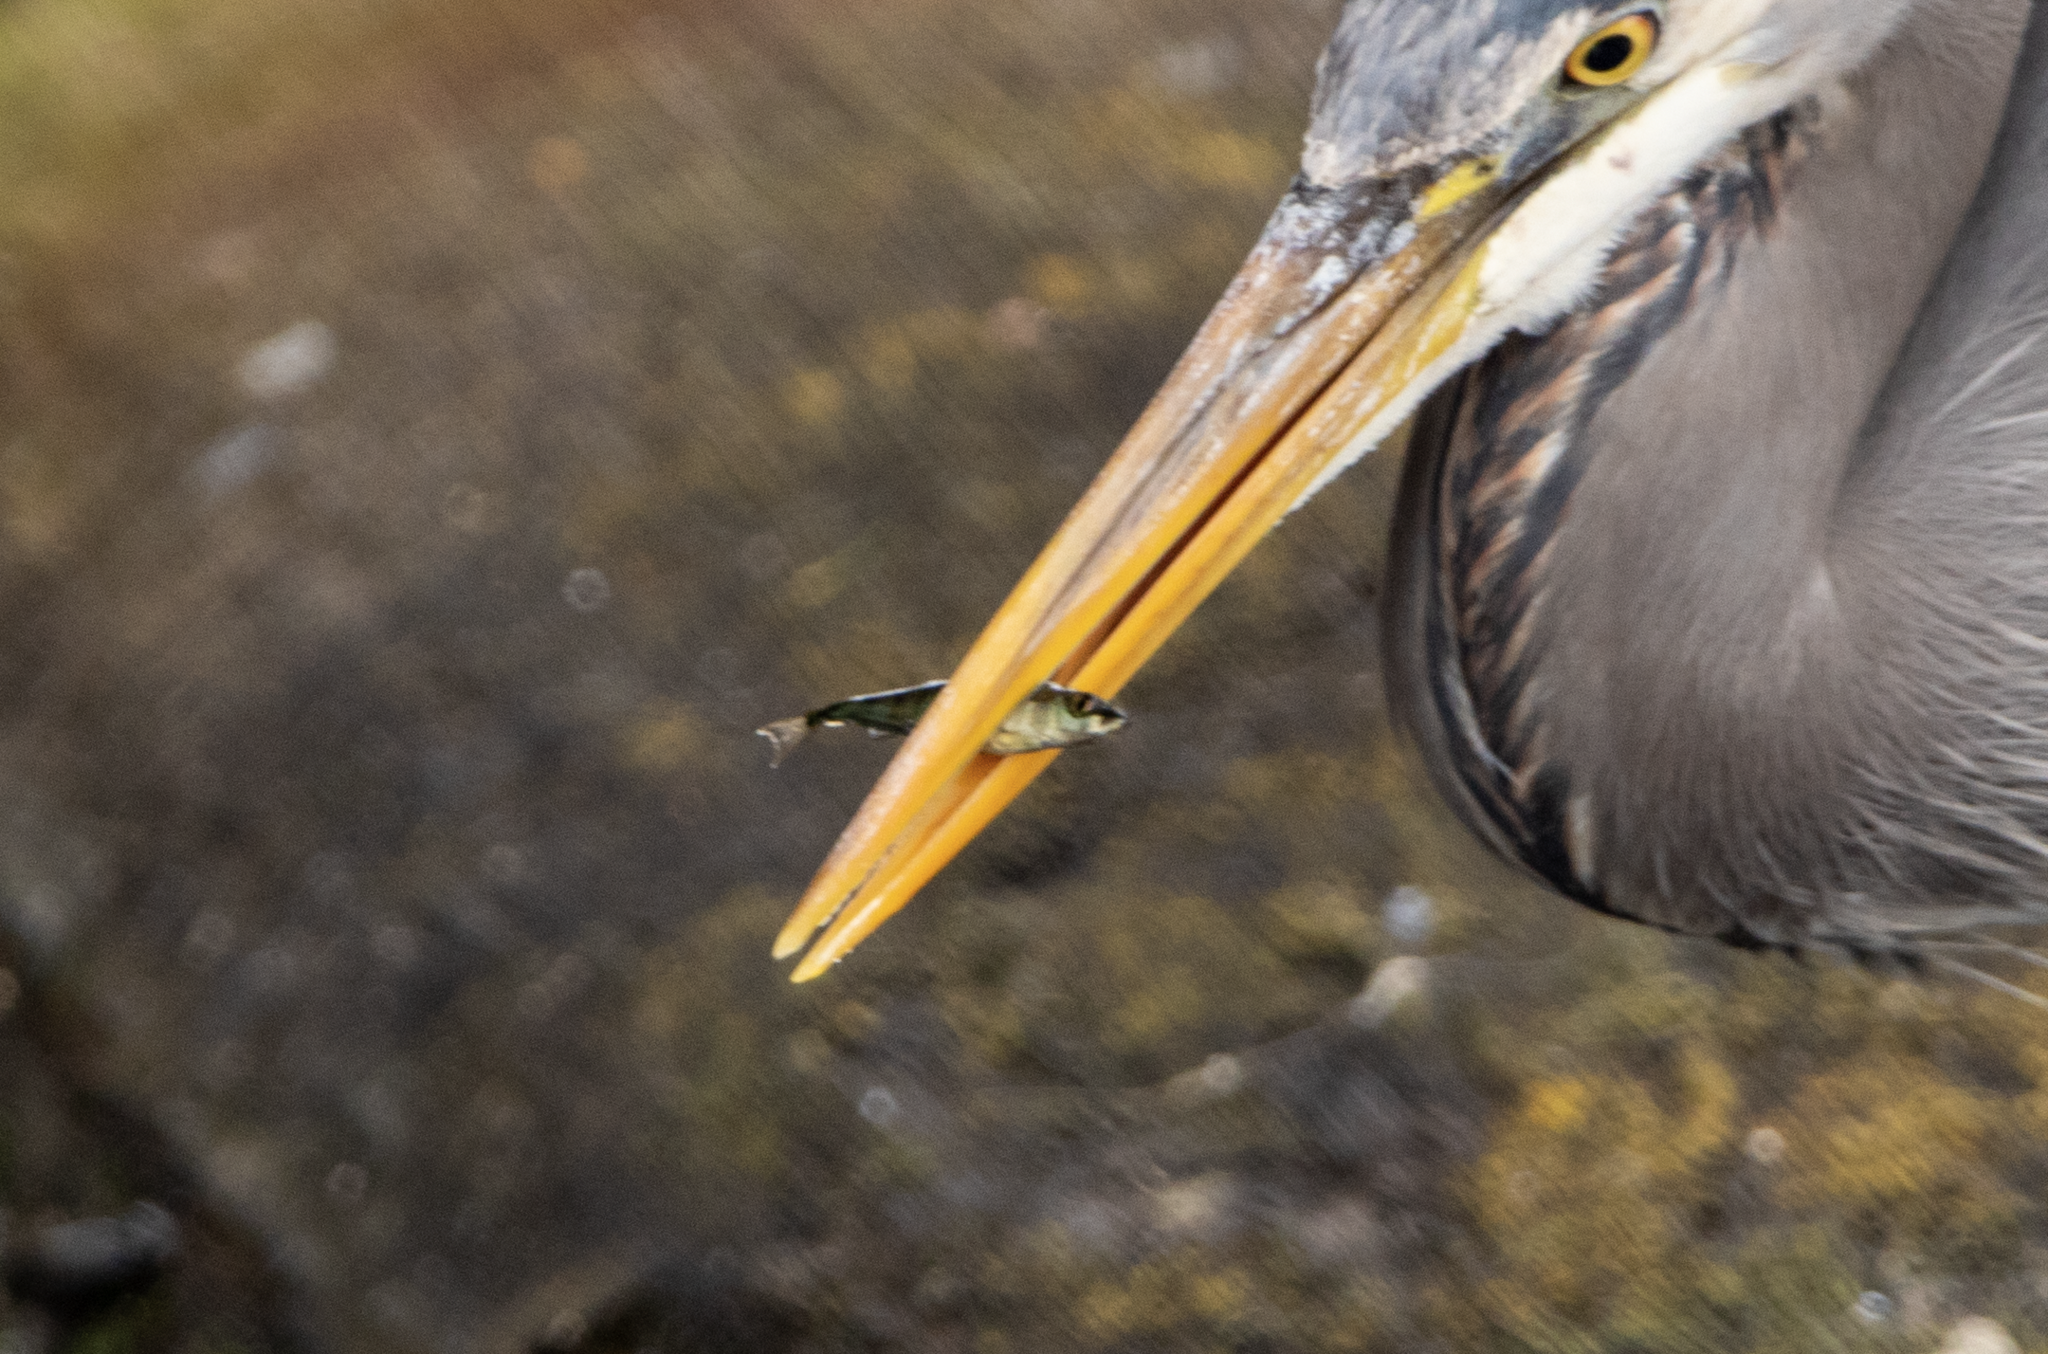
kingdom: Animalia
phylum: Chordata
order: Gasterosteiformes
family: Gasterosteidae
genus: Gasterosteus
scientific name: Gasterosteus aculeatus
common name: Three-spined stickleback
